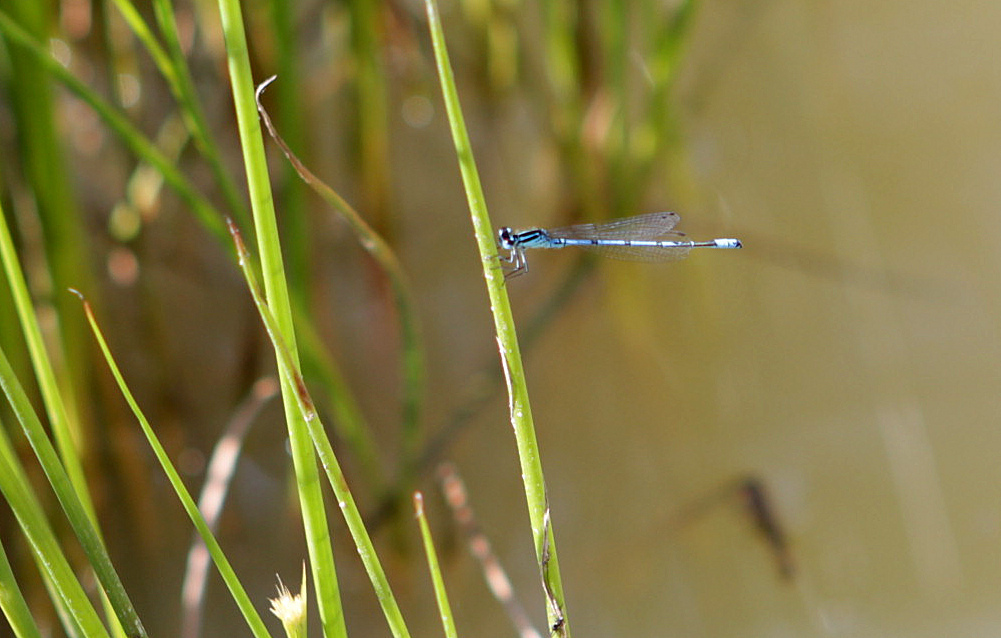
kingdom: Animalia
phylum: Arthropoda
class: Insecta
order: Odonata
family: Coenagrionidae
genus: Coenagrion
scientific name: Coenagrion puella
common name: Azure damselfly
